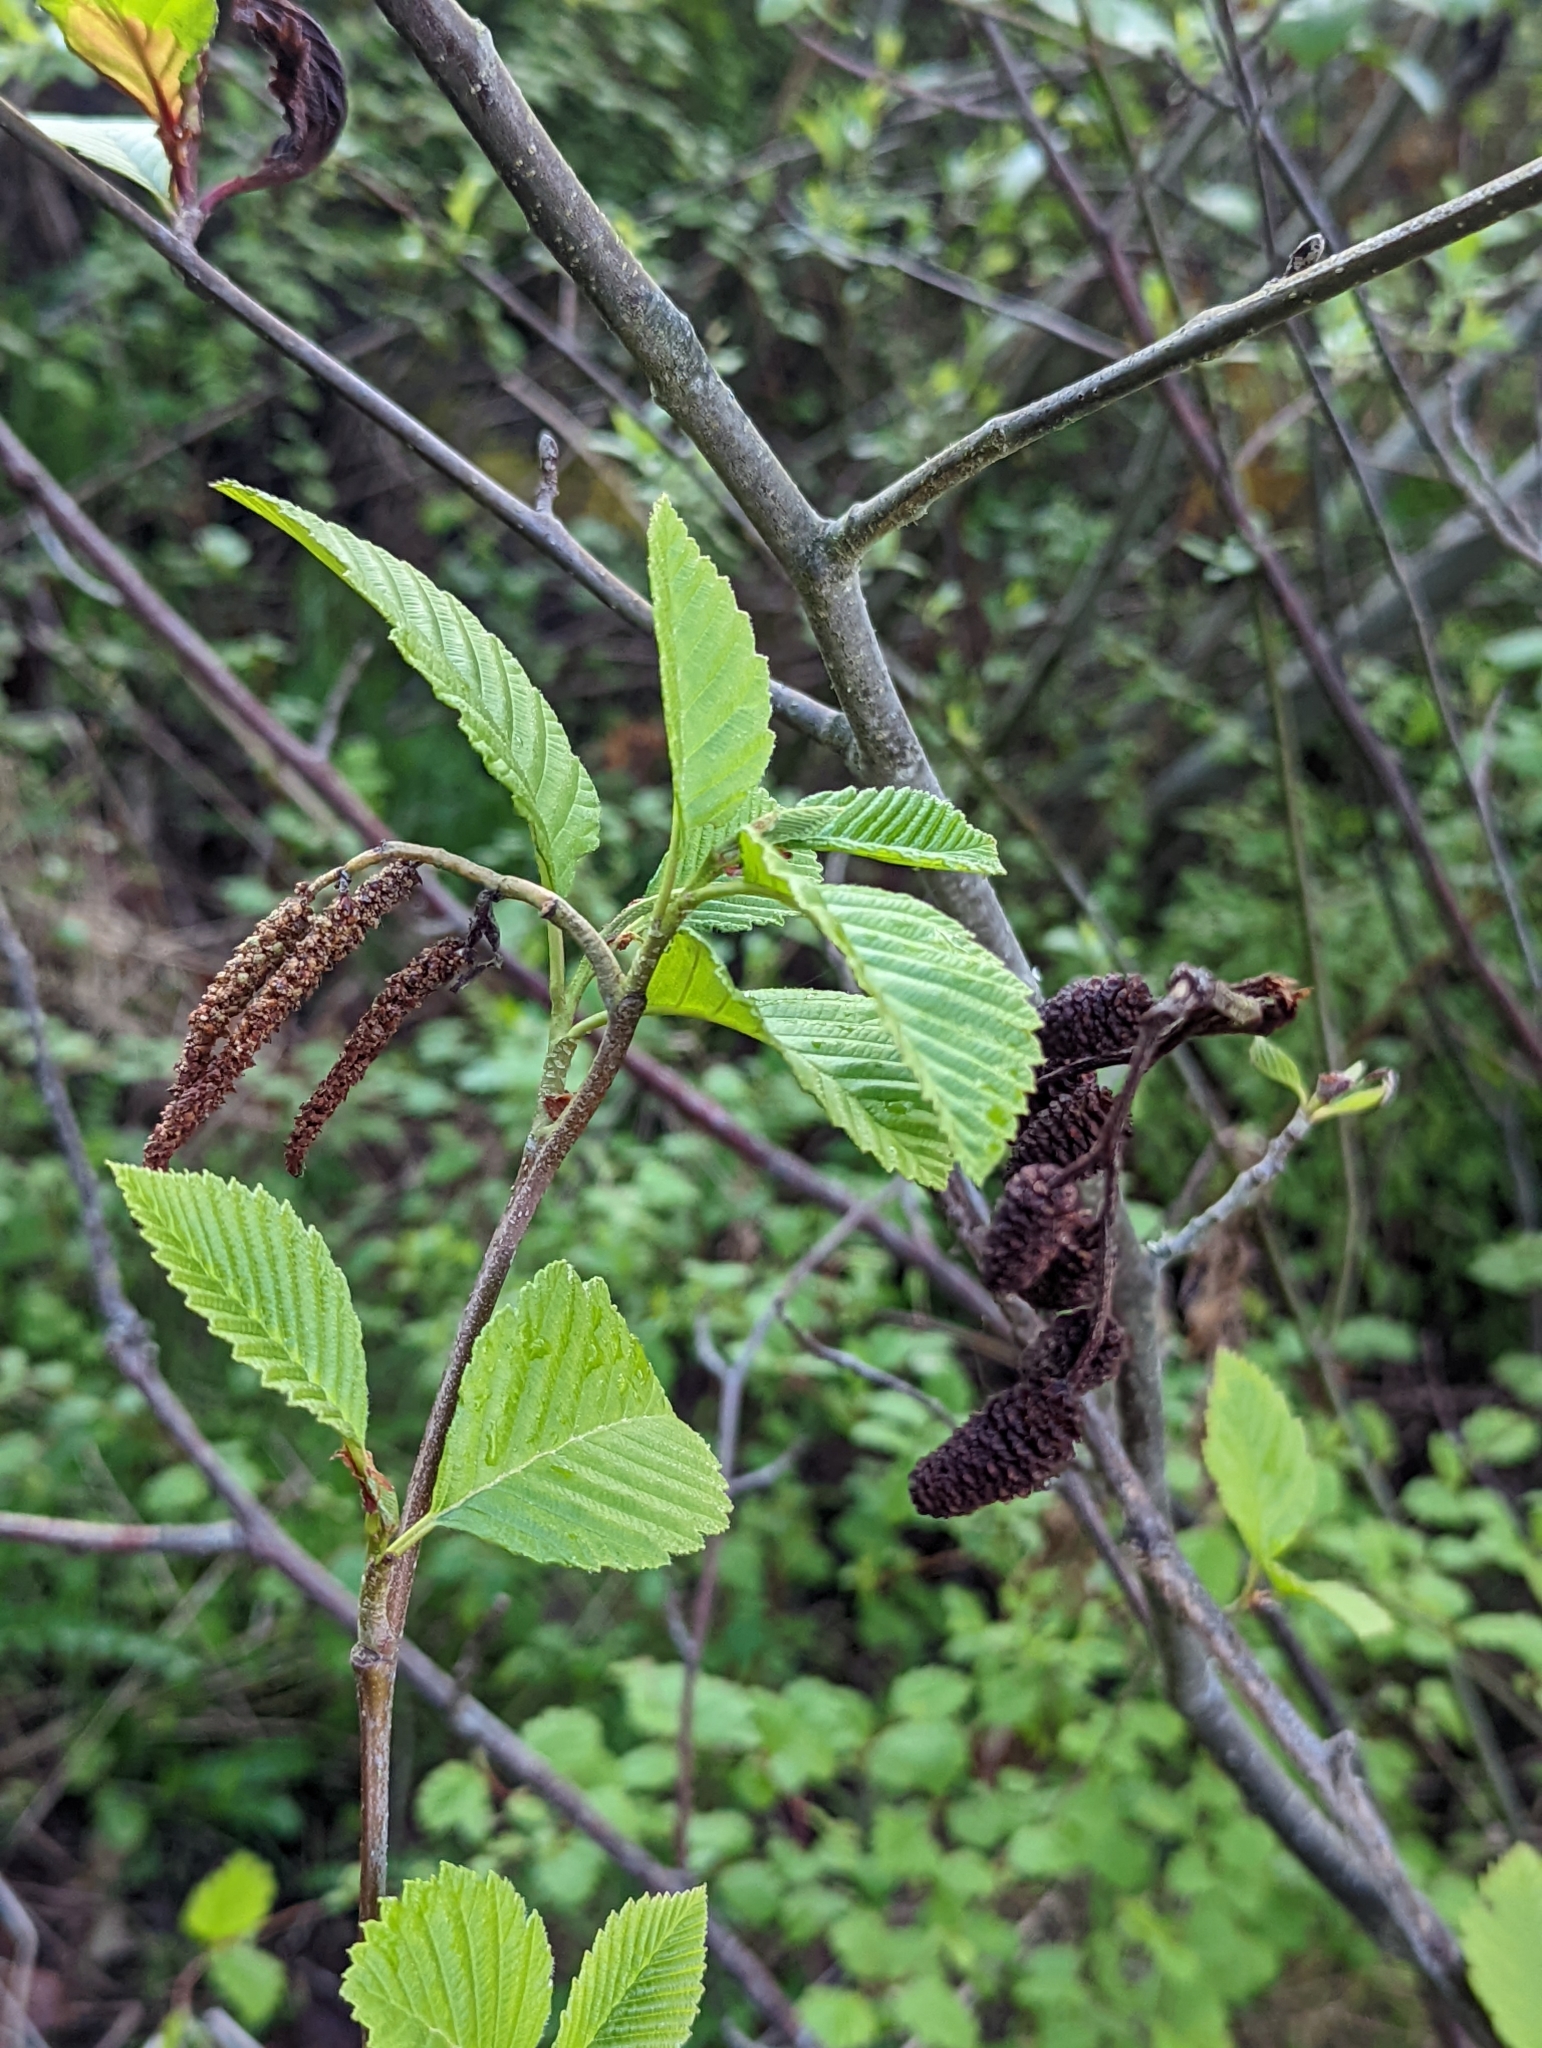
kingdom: Plantae
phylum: Tracheophyta
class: Magnoliopsida
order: Fagales
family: Betulaceae
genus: Alnus
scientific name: Alnus rubra
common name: Red alder
